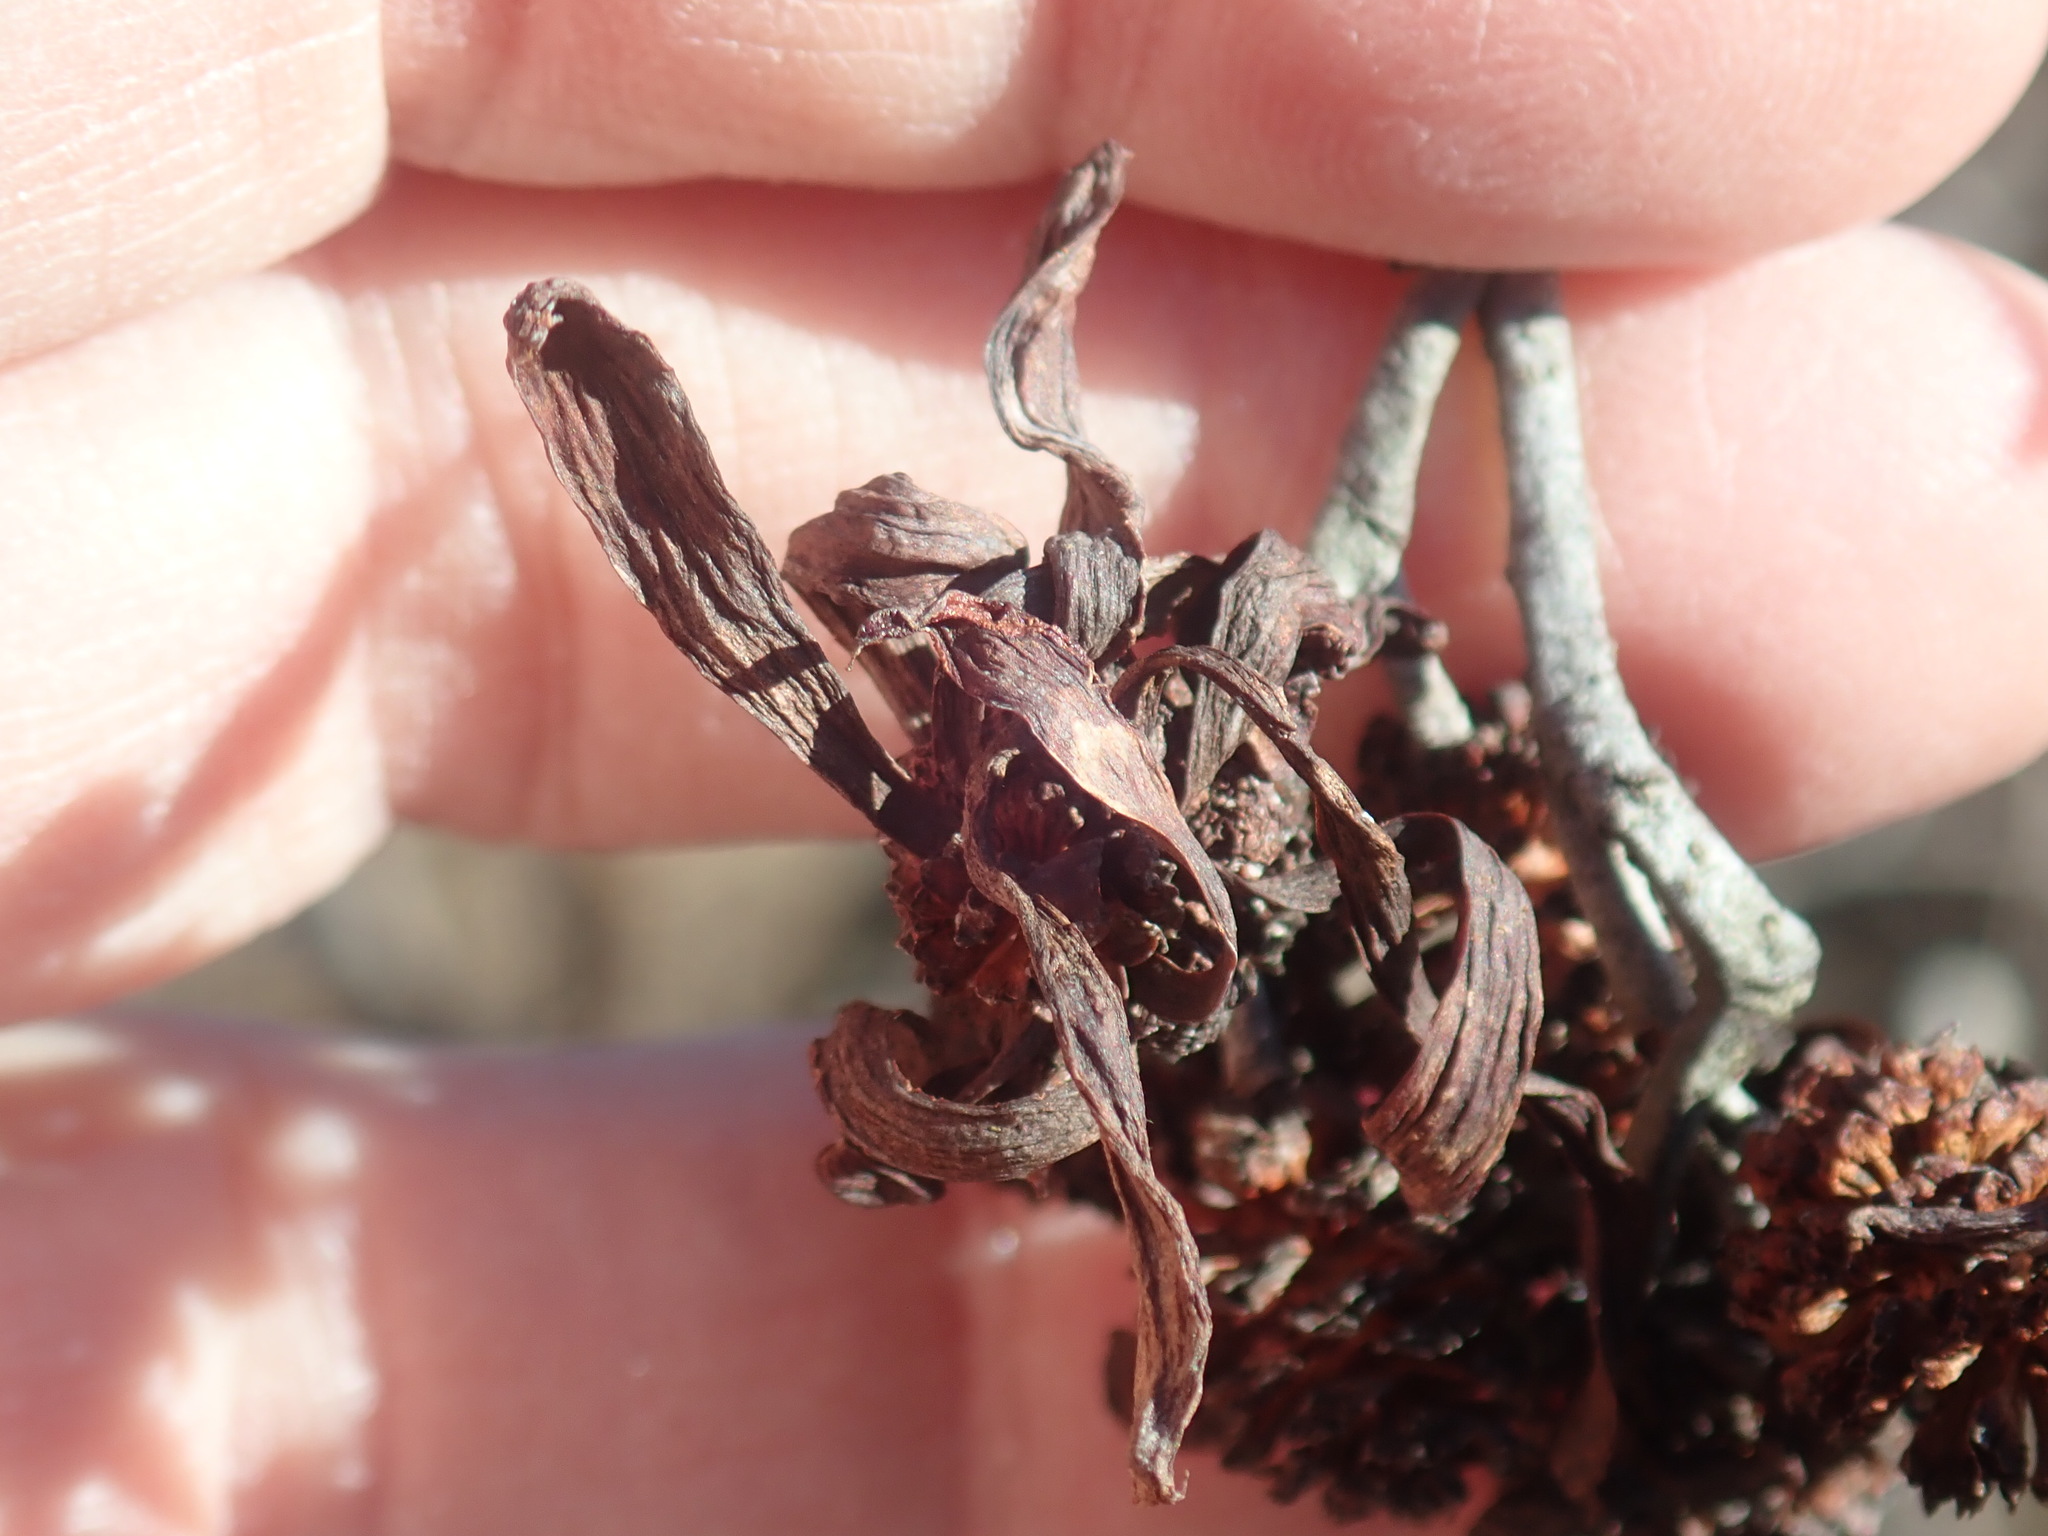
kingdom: Fungi
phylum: Ascomycota
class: Taphrinomycetes
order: Taphrinales
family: Taphrinaceae
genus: Taphrina
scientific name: Taphrina robinsoniana
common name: Eastern american alder tongue gall fungus
